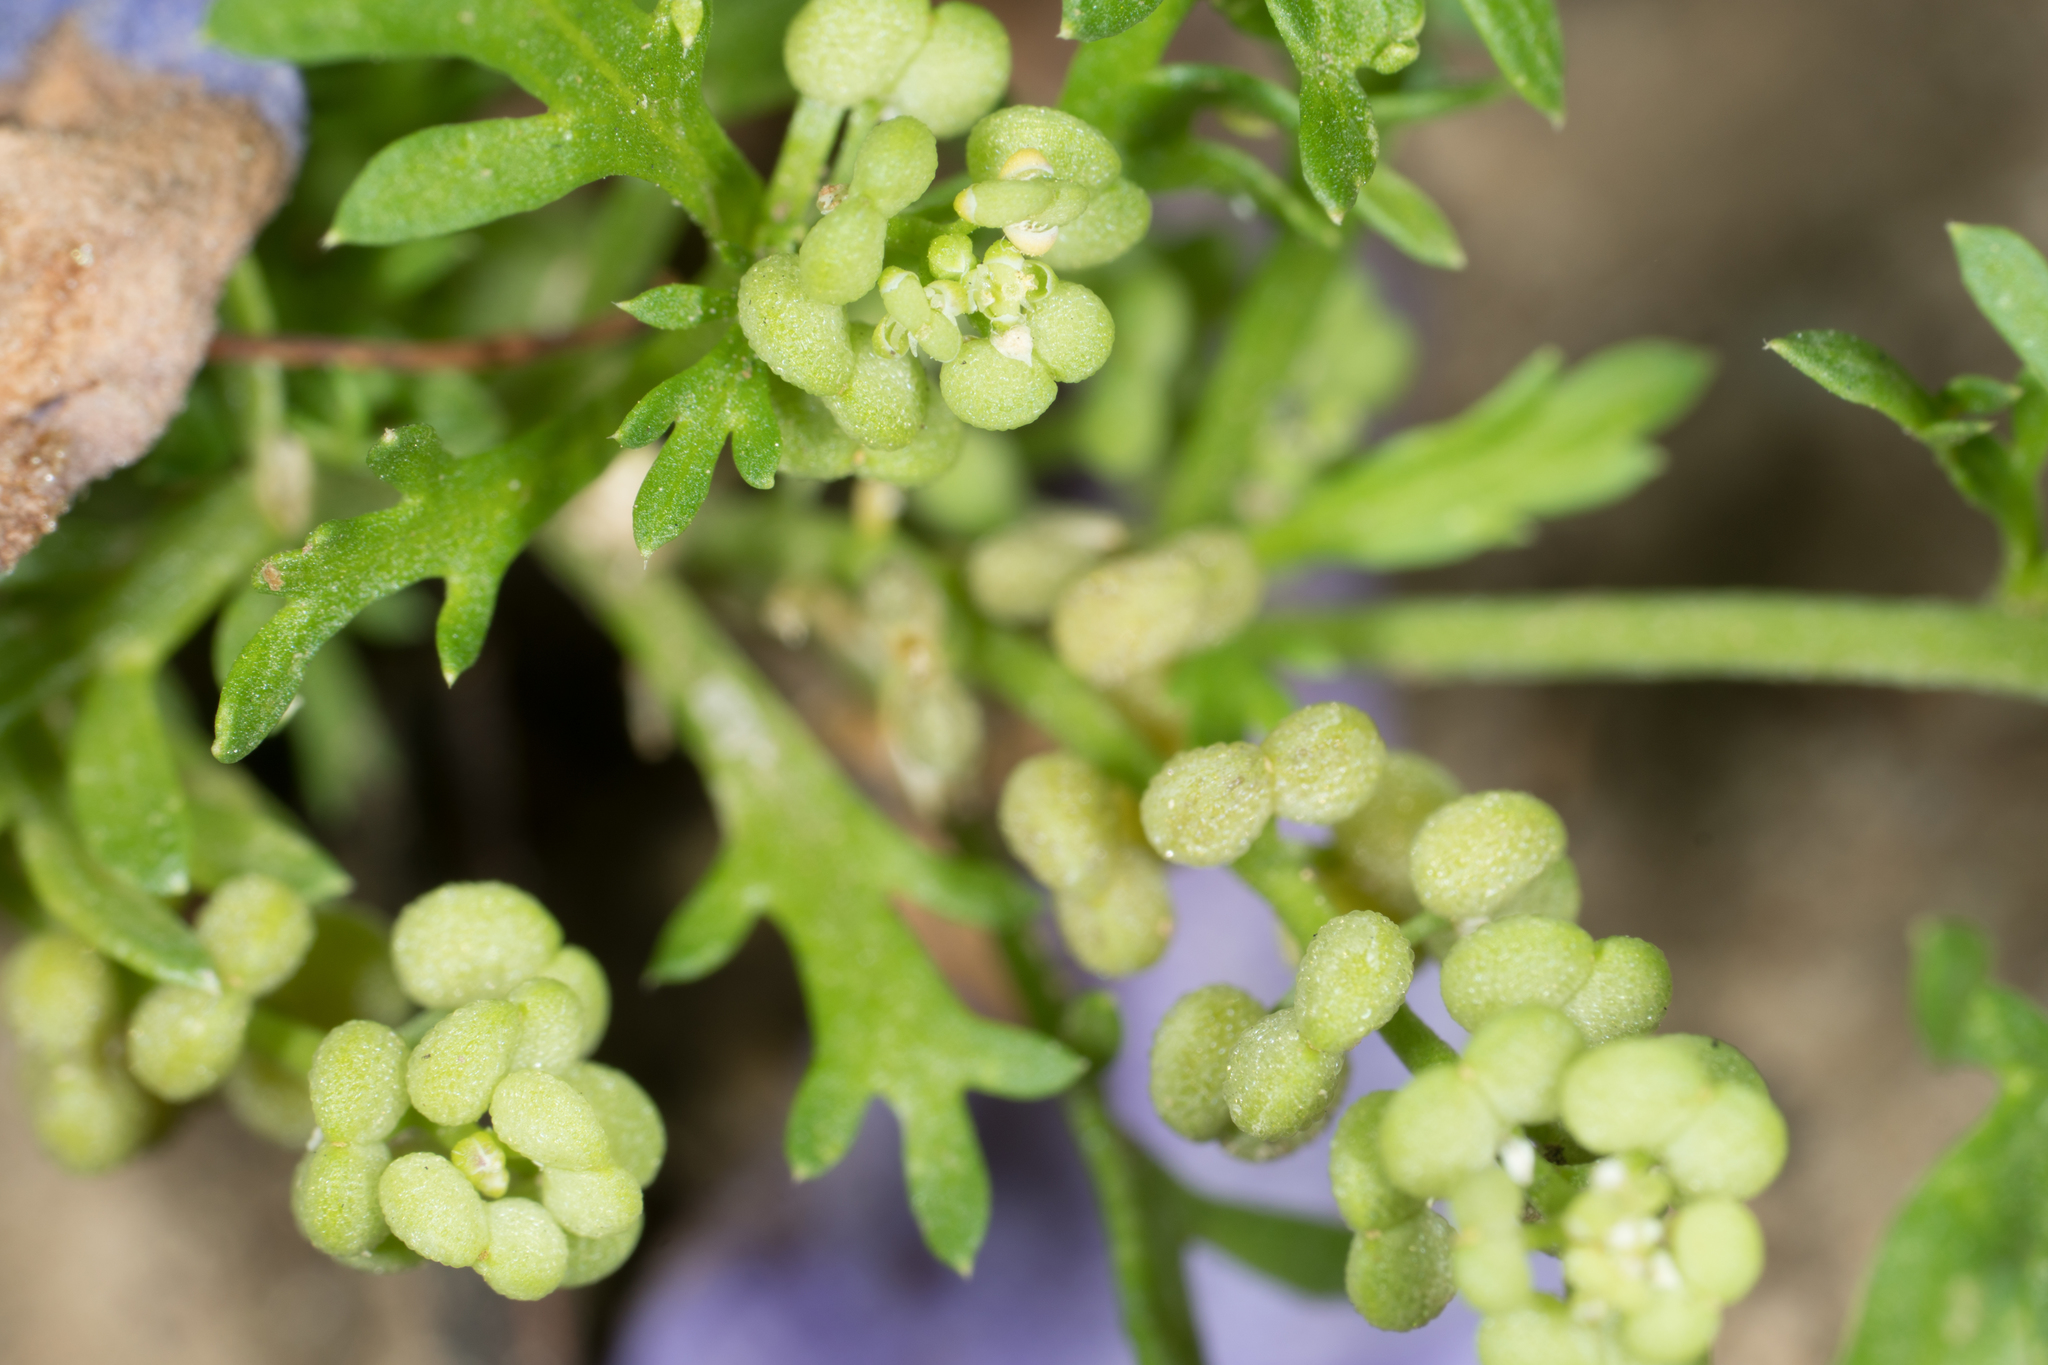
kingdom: Plantae
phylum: Tracheophyta
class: Magnoliopsida
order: Brassicales
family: Brassicaceae
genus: Lepidium
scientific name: Lepidium didymum
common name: Lesser swinecress
